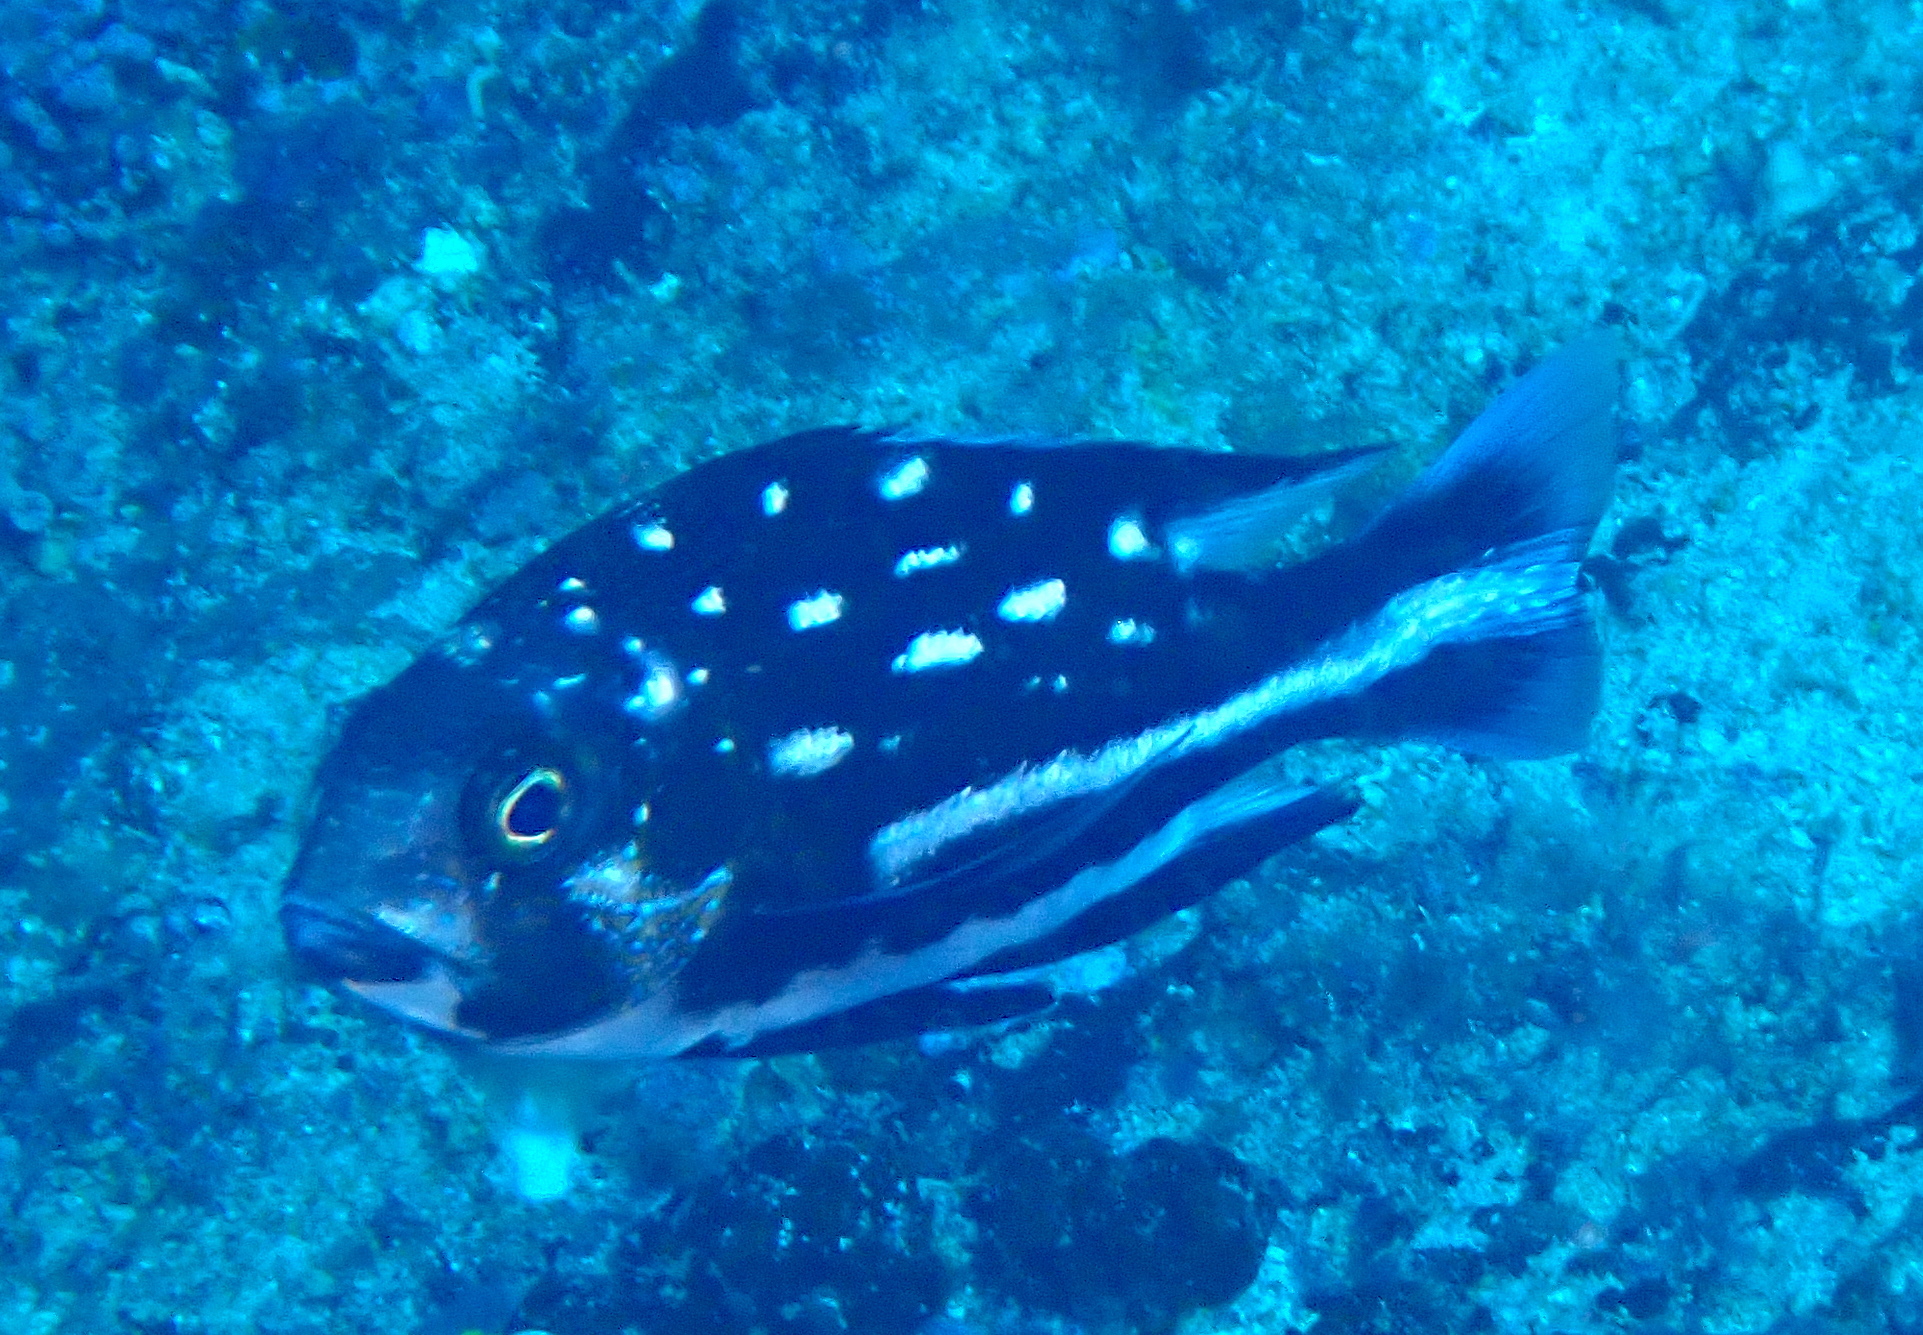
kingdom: Animalia
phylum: Chordata
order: Perciformes
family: Lutjanidae
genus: Macolor
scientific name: Macolor macularis
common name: Midnight snapper
